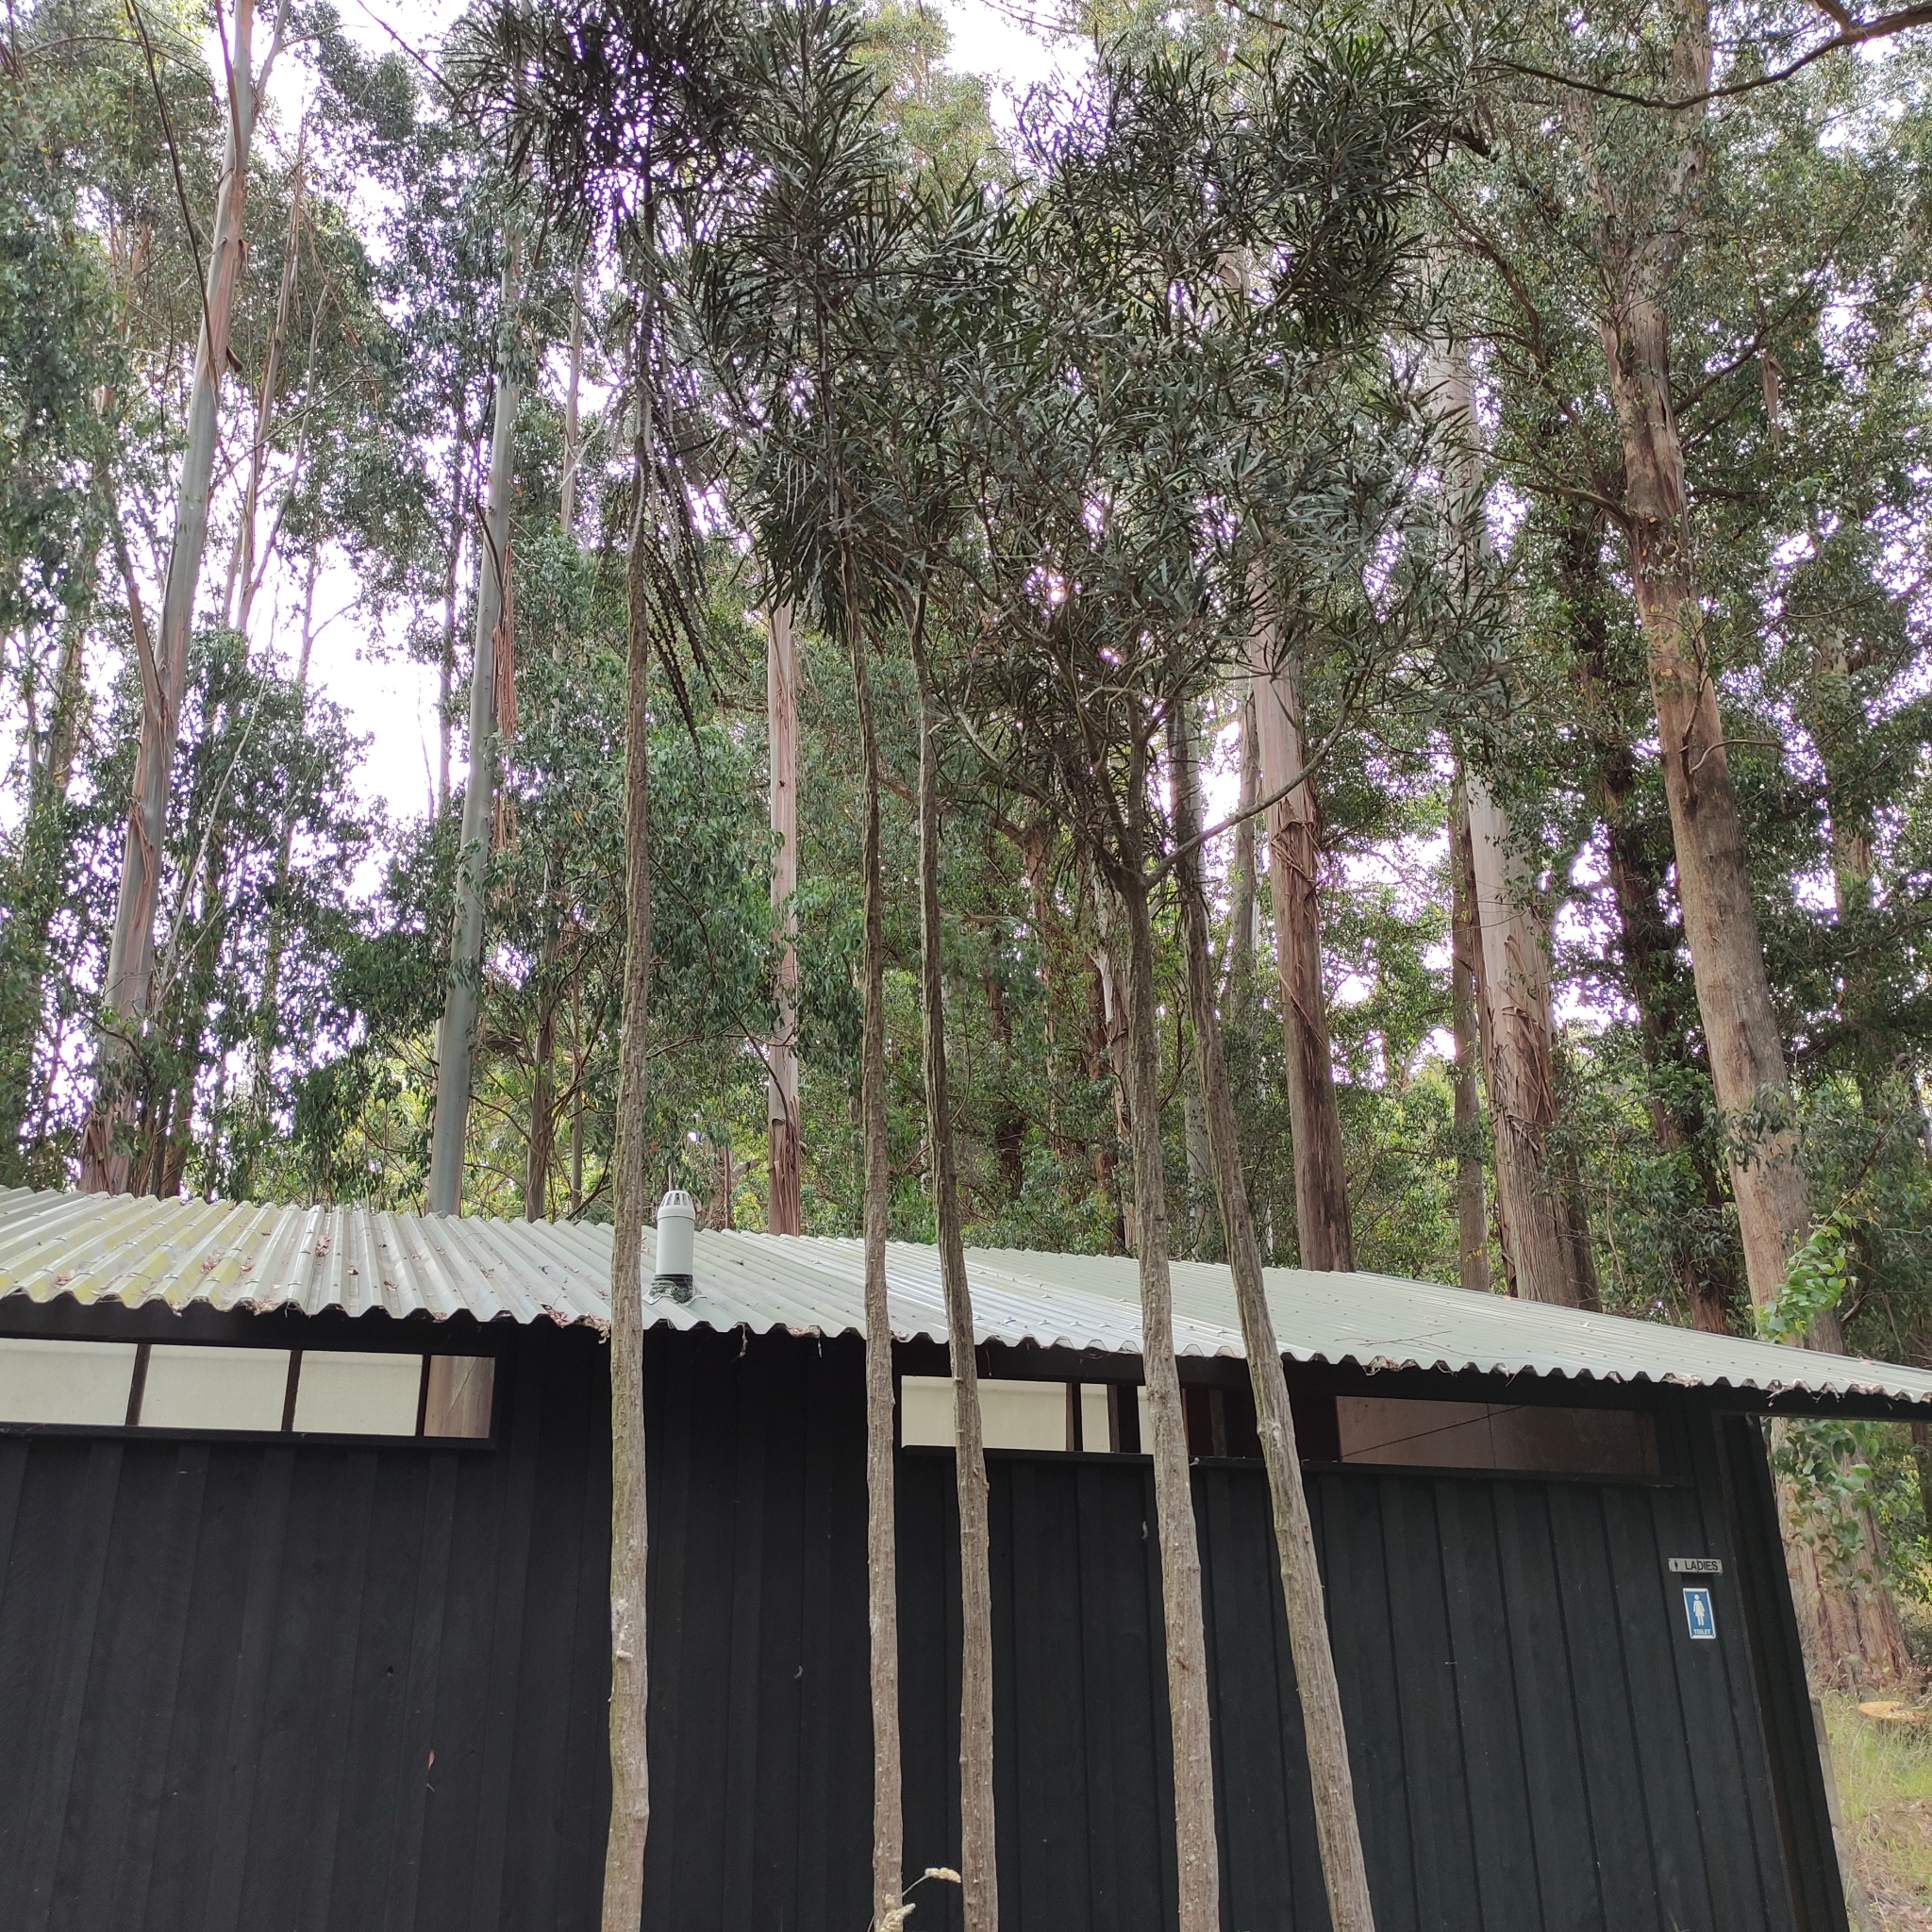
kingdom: Plantae
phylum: Tracheophyta
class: Magnoliopsida
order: Apiales
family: Araliaceae
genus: Pseudopanax
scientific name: Pseudopanax crassifolius
